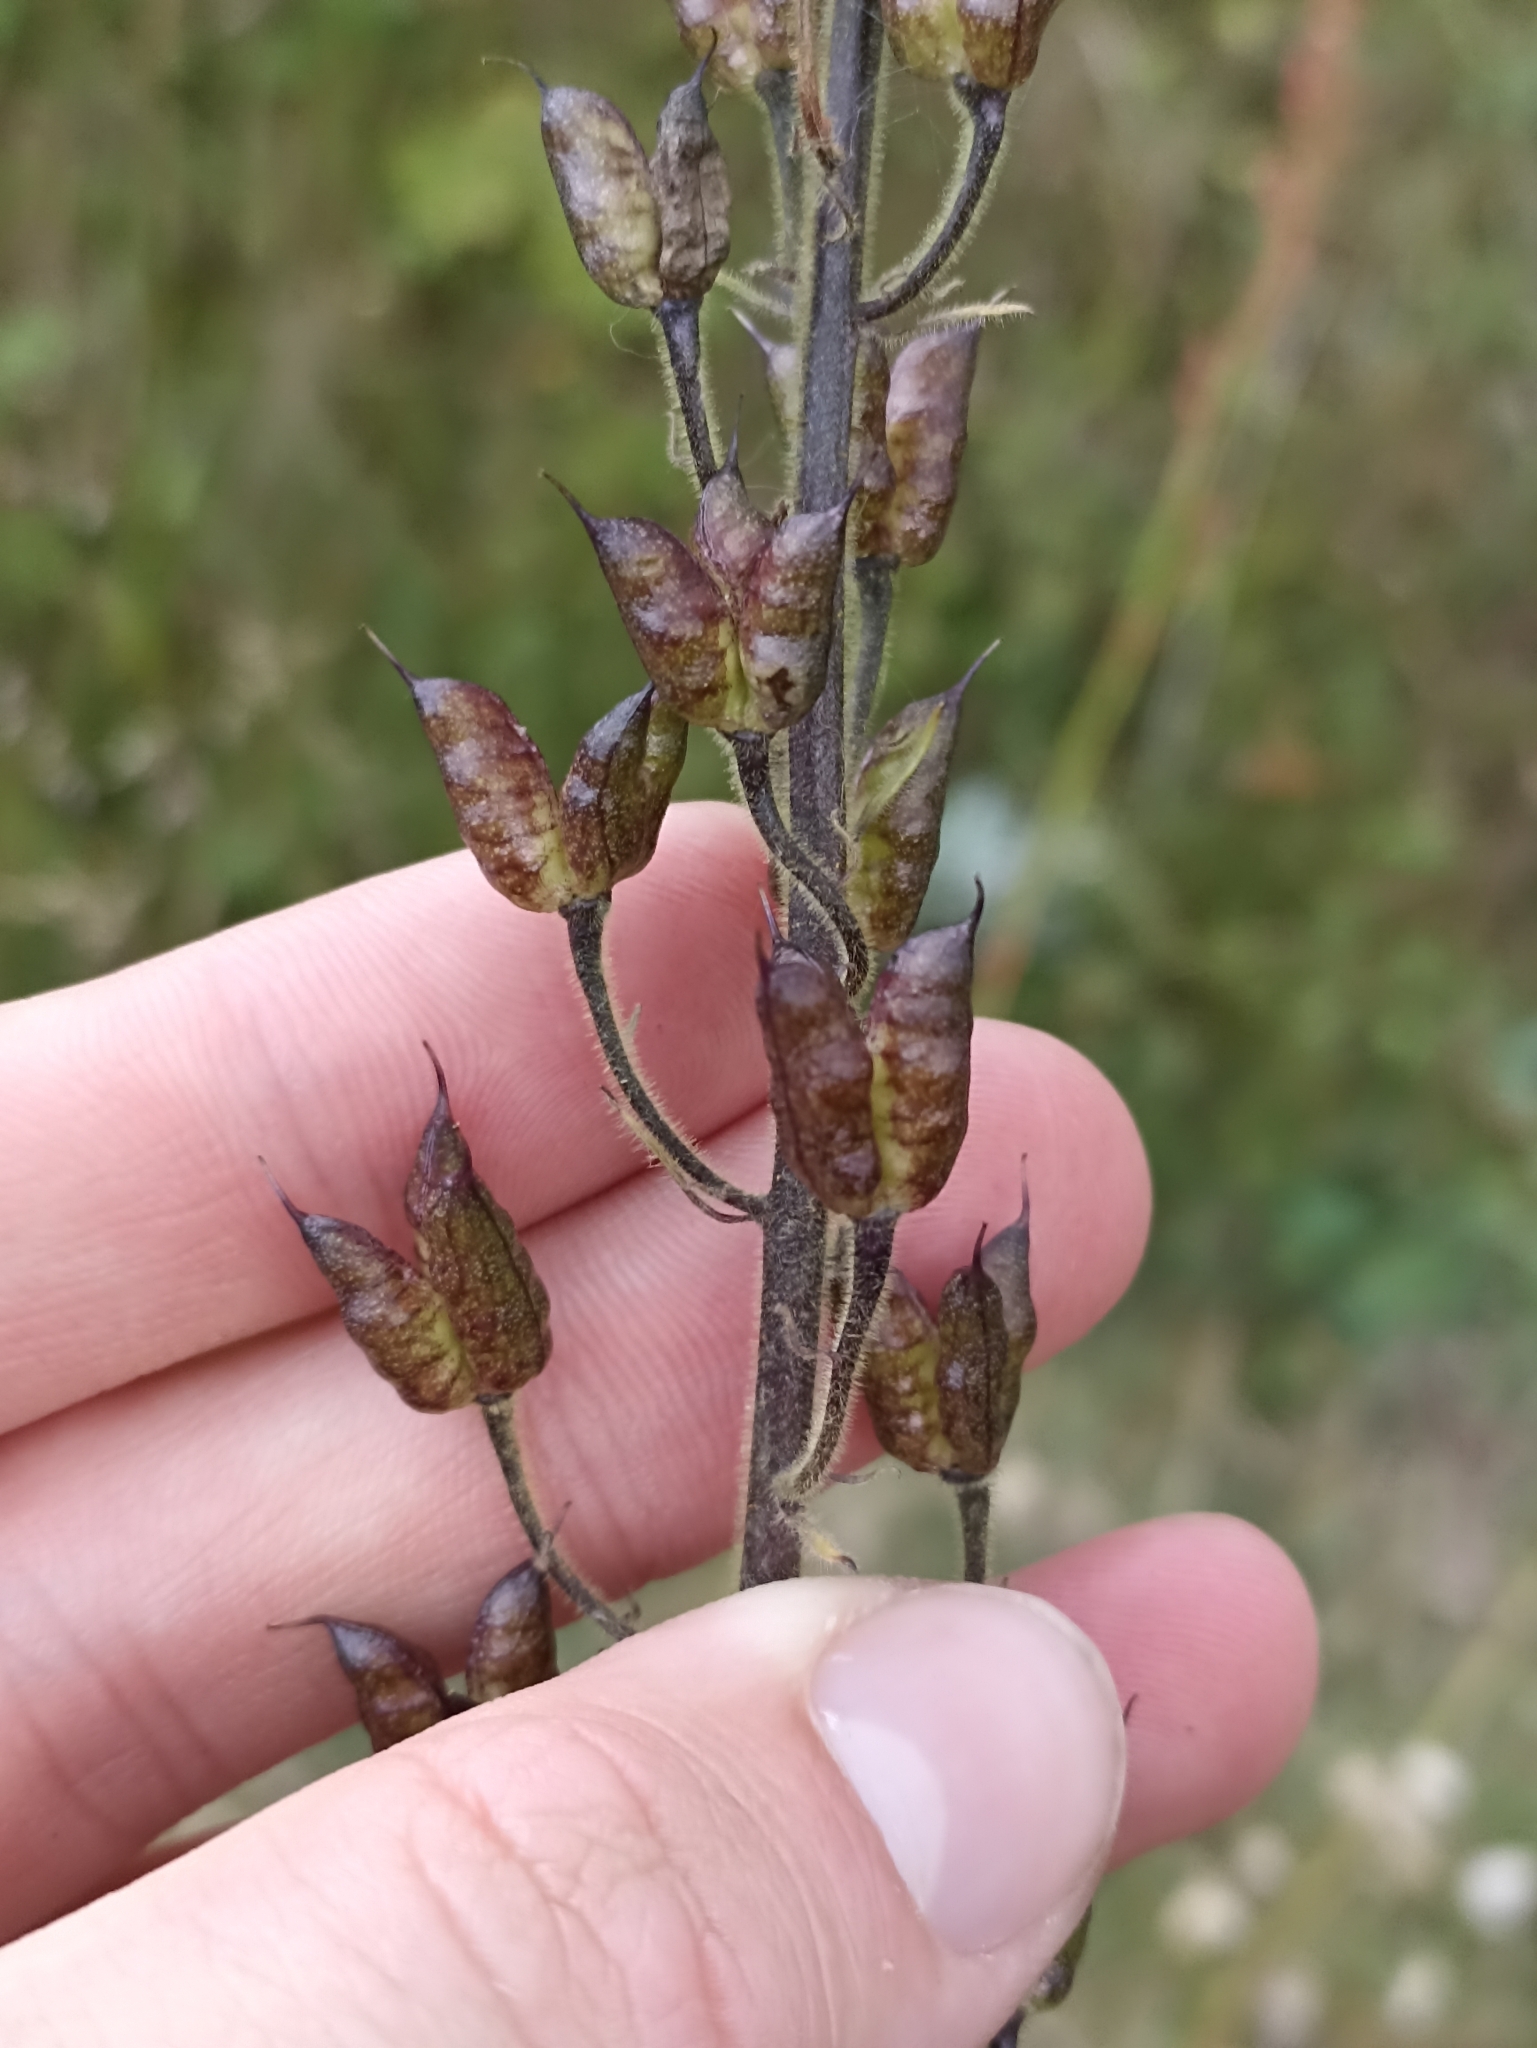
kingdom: Plantae
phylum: Tracheophyta
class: Magnoliopsida
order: Ranunculales
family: Ranunculaceae
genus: Aconitum
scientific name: Aconitum septentrionale
